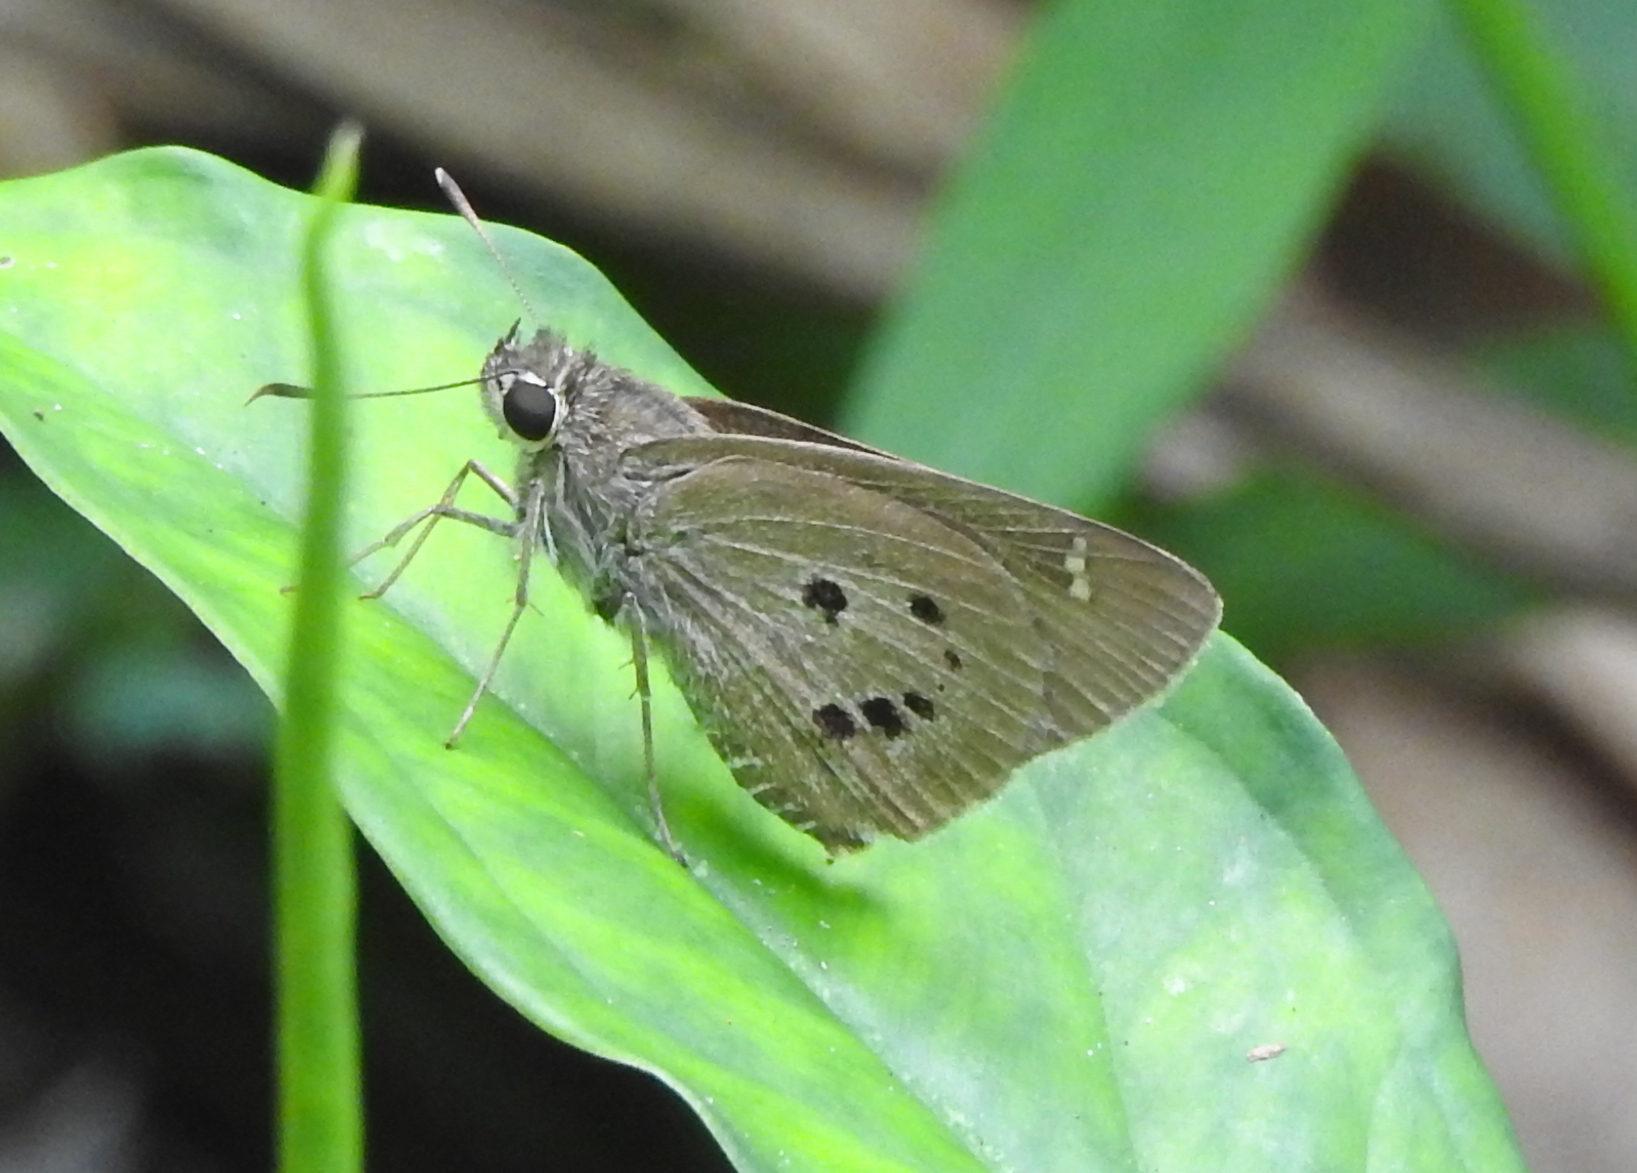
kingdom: Animalia
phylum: Arthropoda
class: Insecta
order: Lepidoptera
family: Hesperiidae
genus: Suastus
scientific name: Suastus gremius
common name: Indian palm bob
